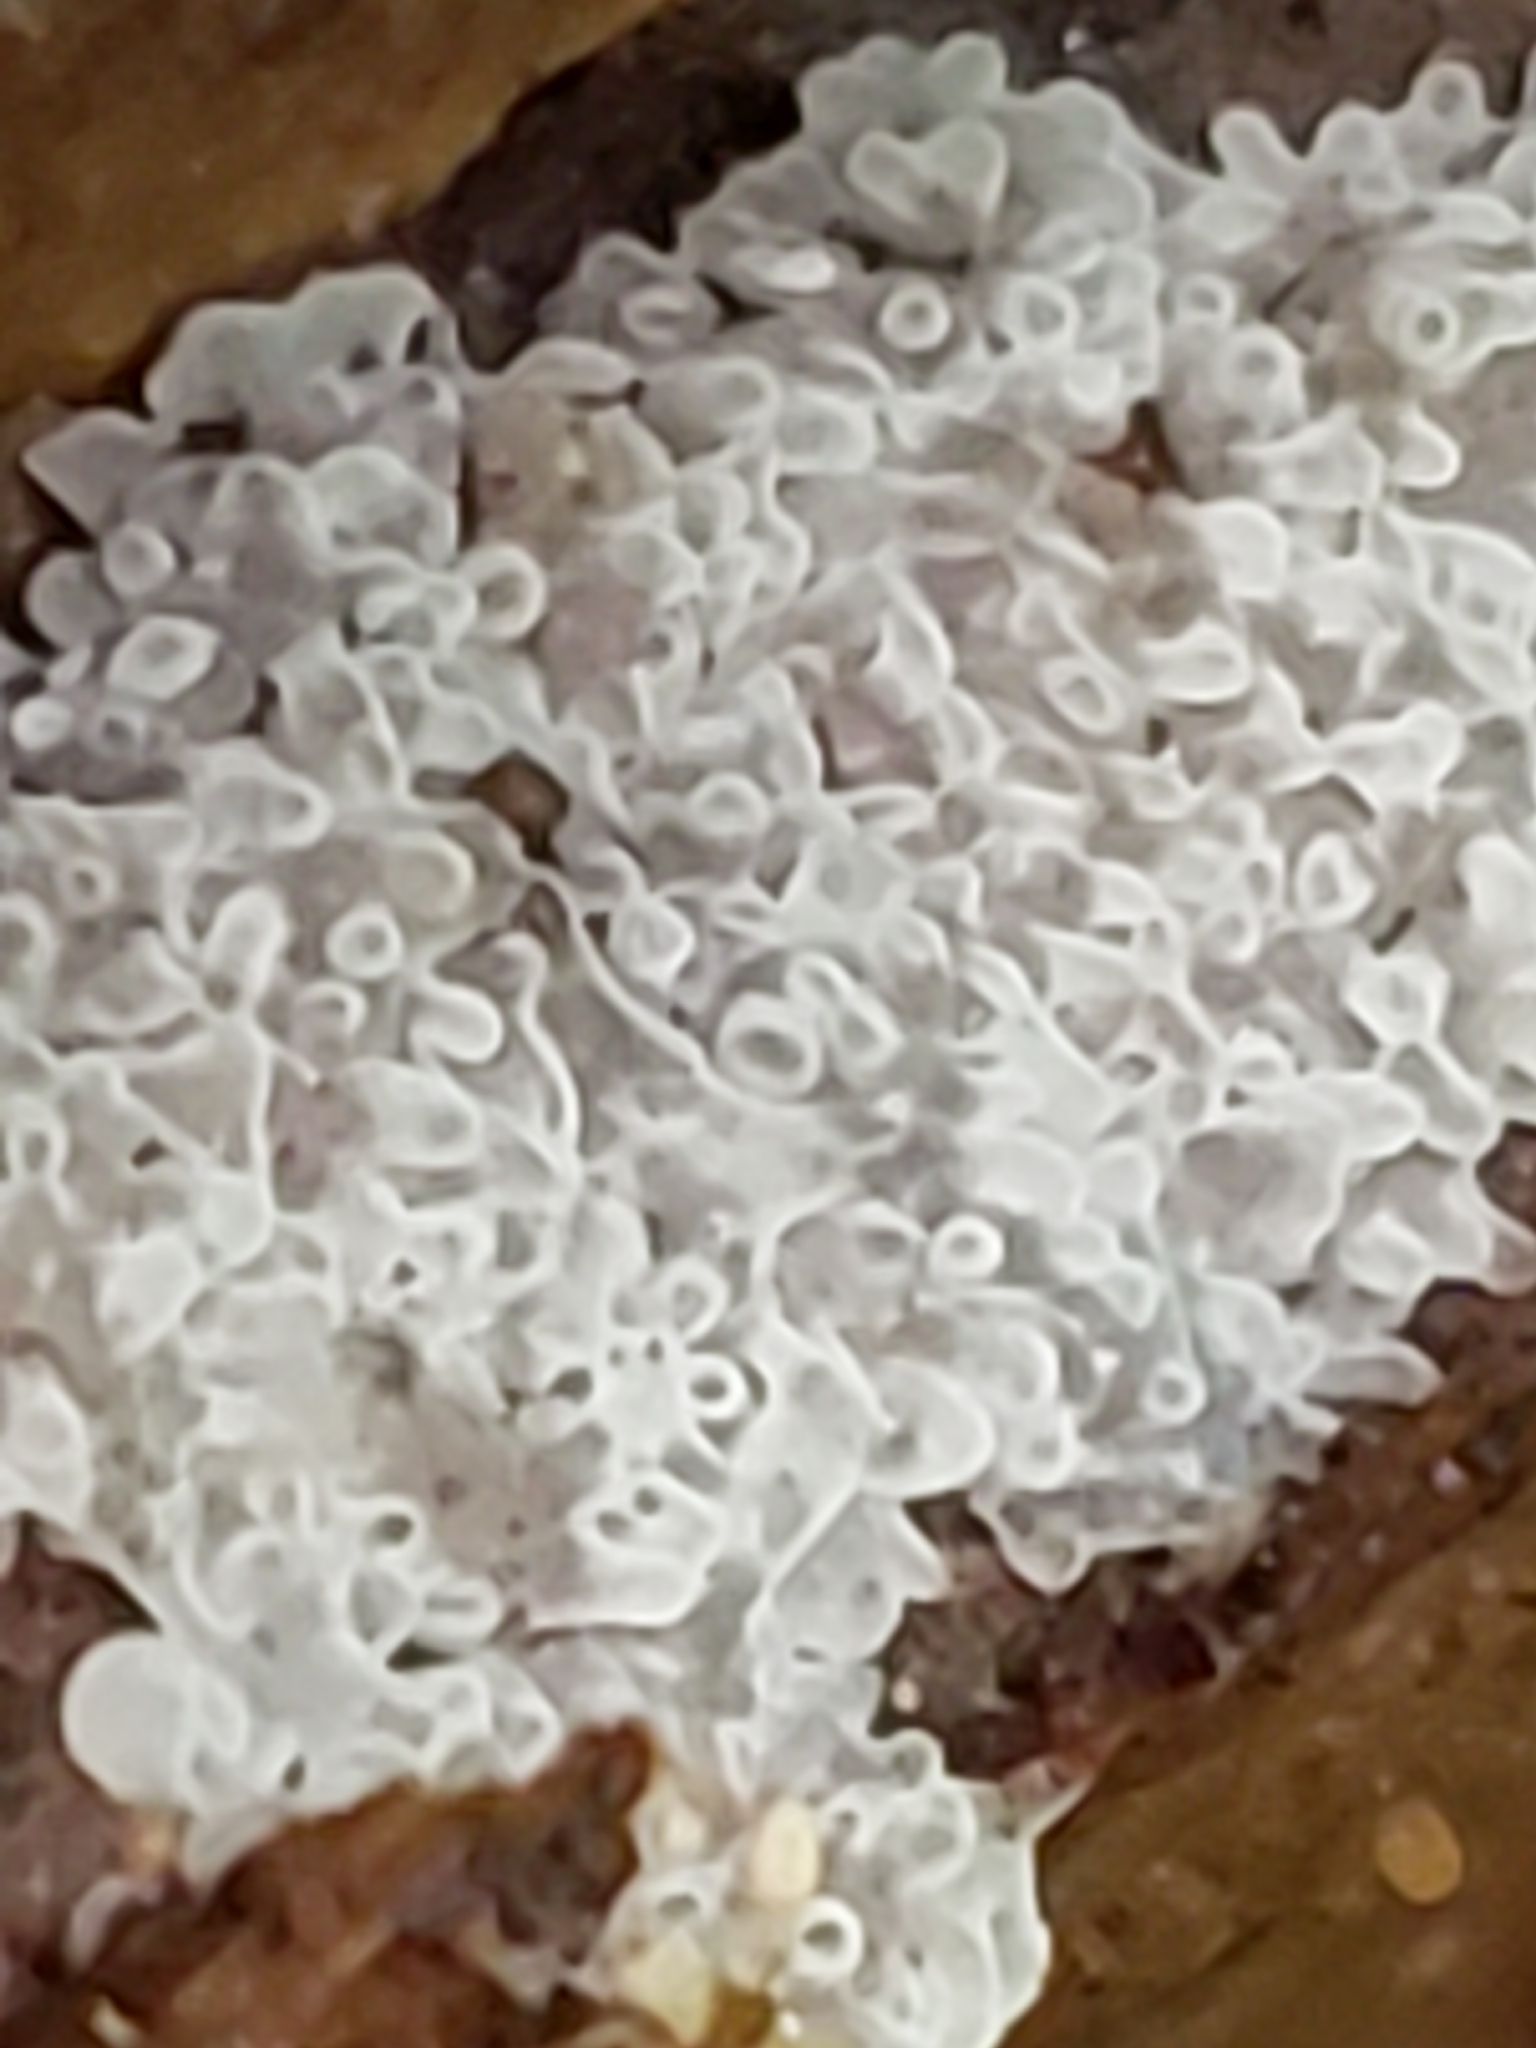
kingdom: Protozoa
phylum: Mycetozoa
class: Protosteliomycetes
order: Ceratiomyxales
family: Ceratiomyxaceae
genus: Ceratiomyxa
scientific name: Ceratiomyxa fruticulosa
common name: Honeycomb coral slime mold
